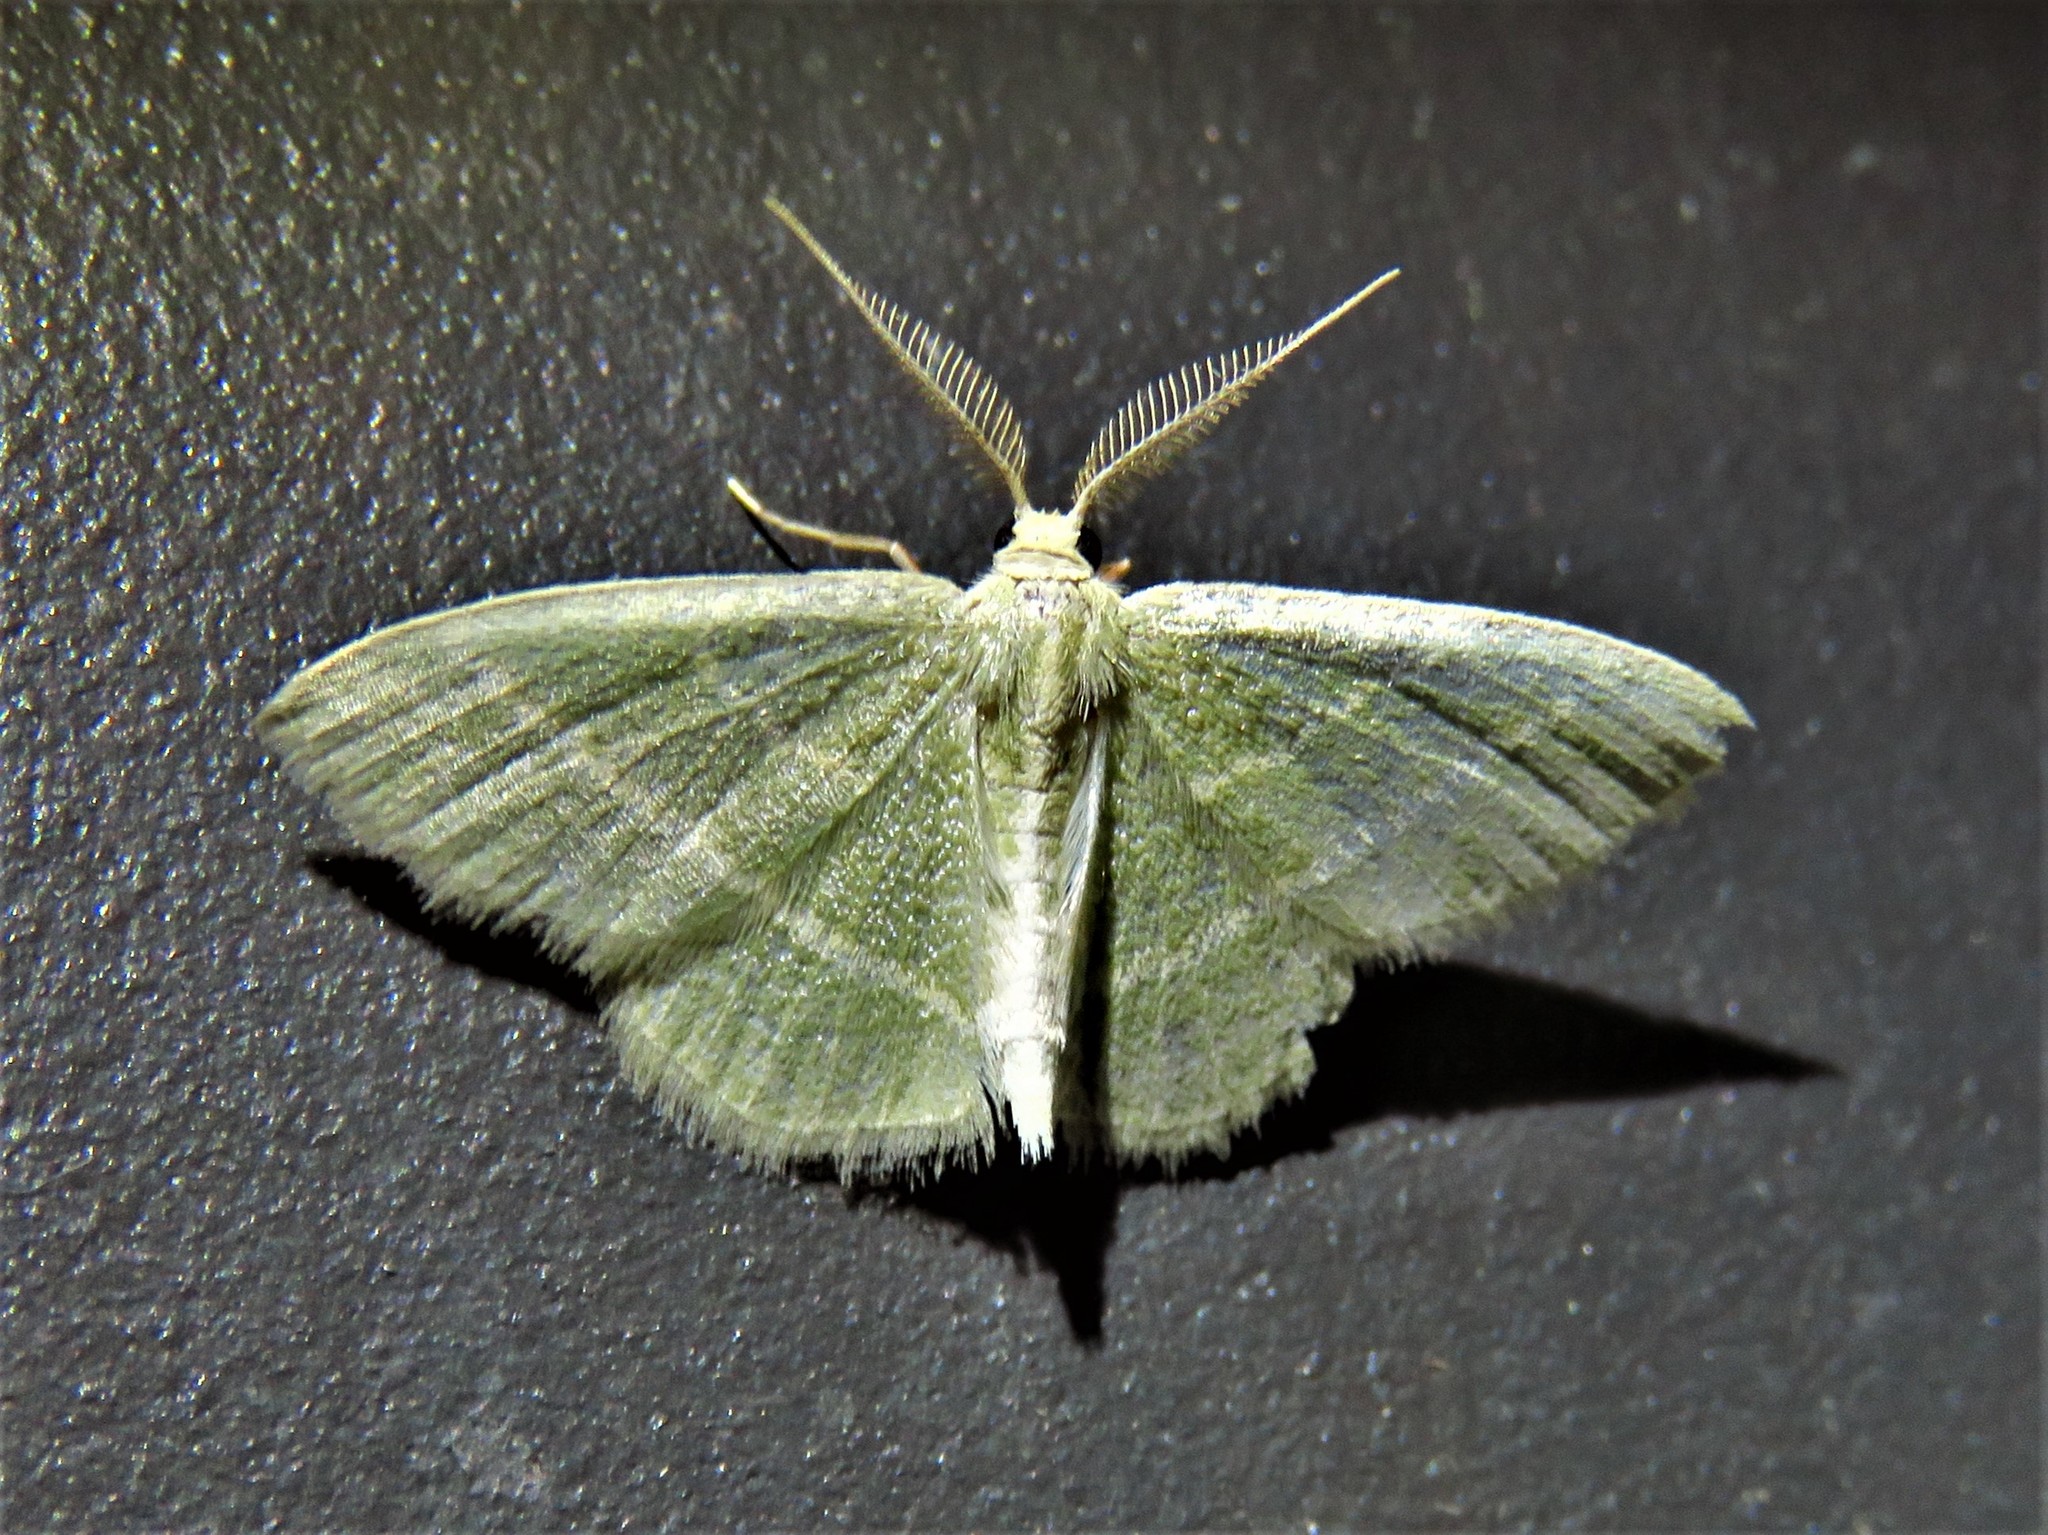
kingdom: Animalia
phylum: Arthropoda
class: Insecta
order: Lepidoptera
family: Geometridae
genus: Chlorochlamys
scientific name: Chlorochlamys chloroleucaria
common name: Blackberry looper
